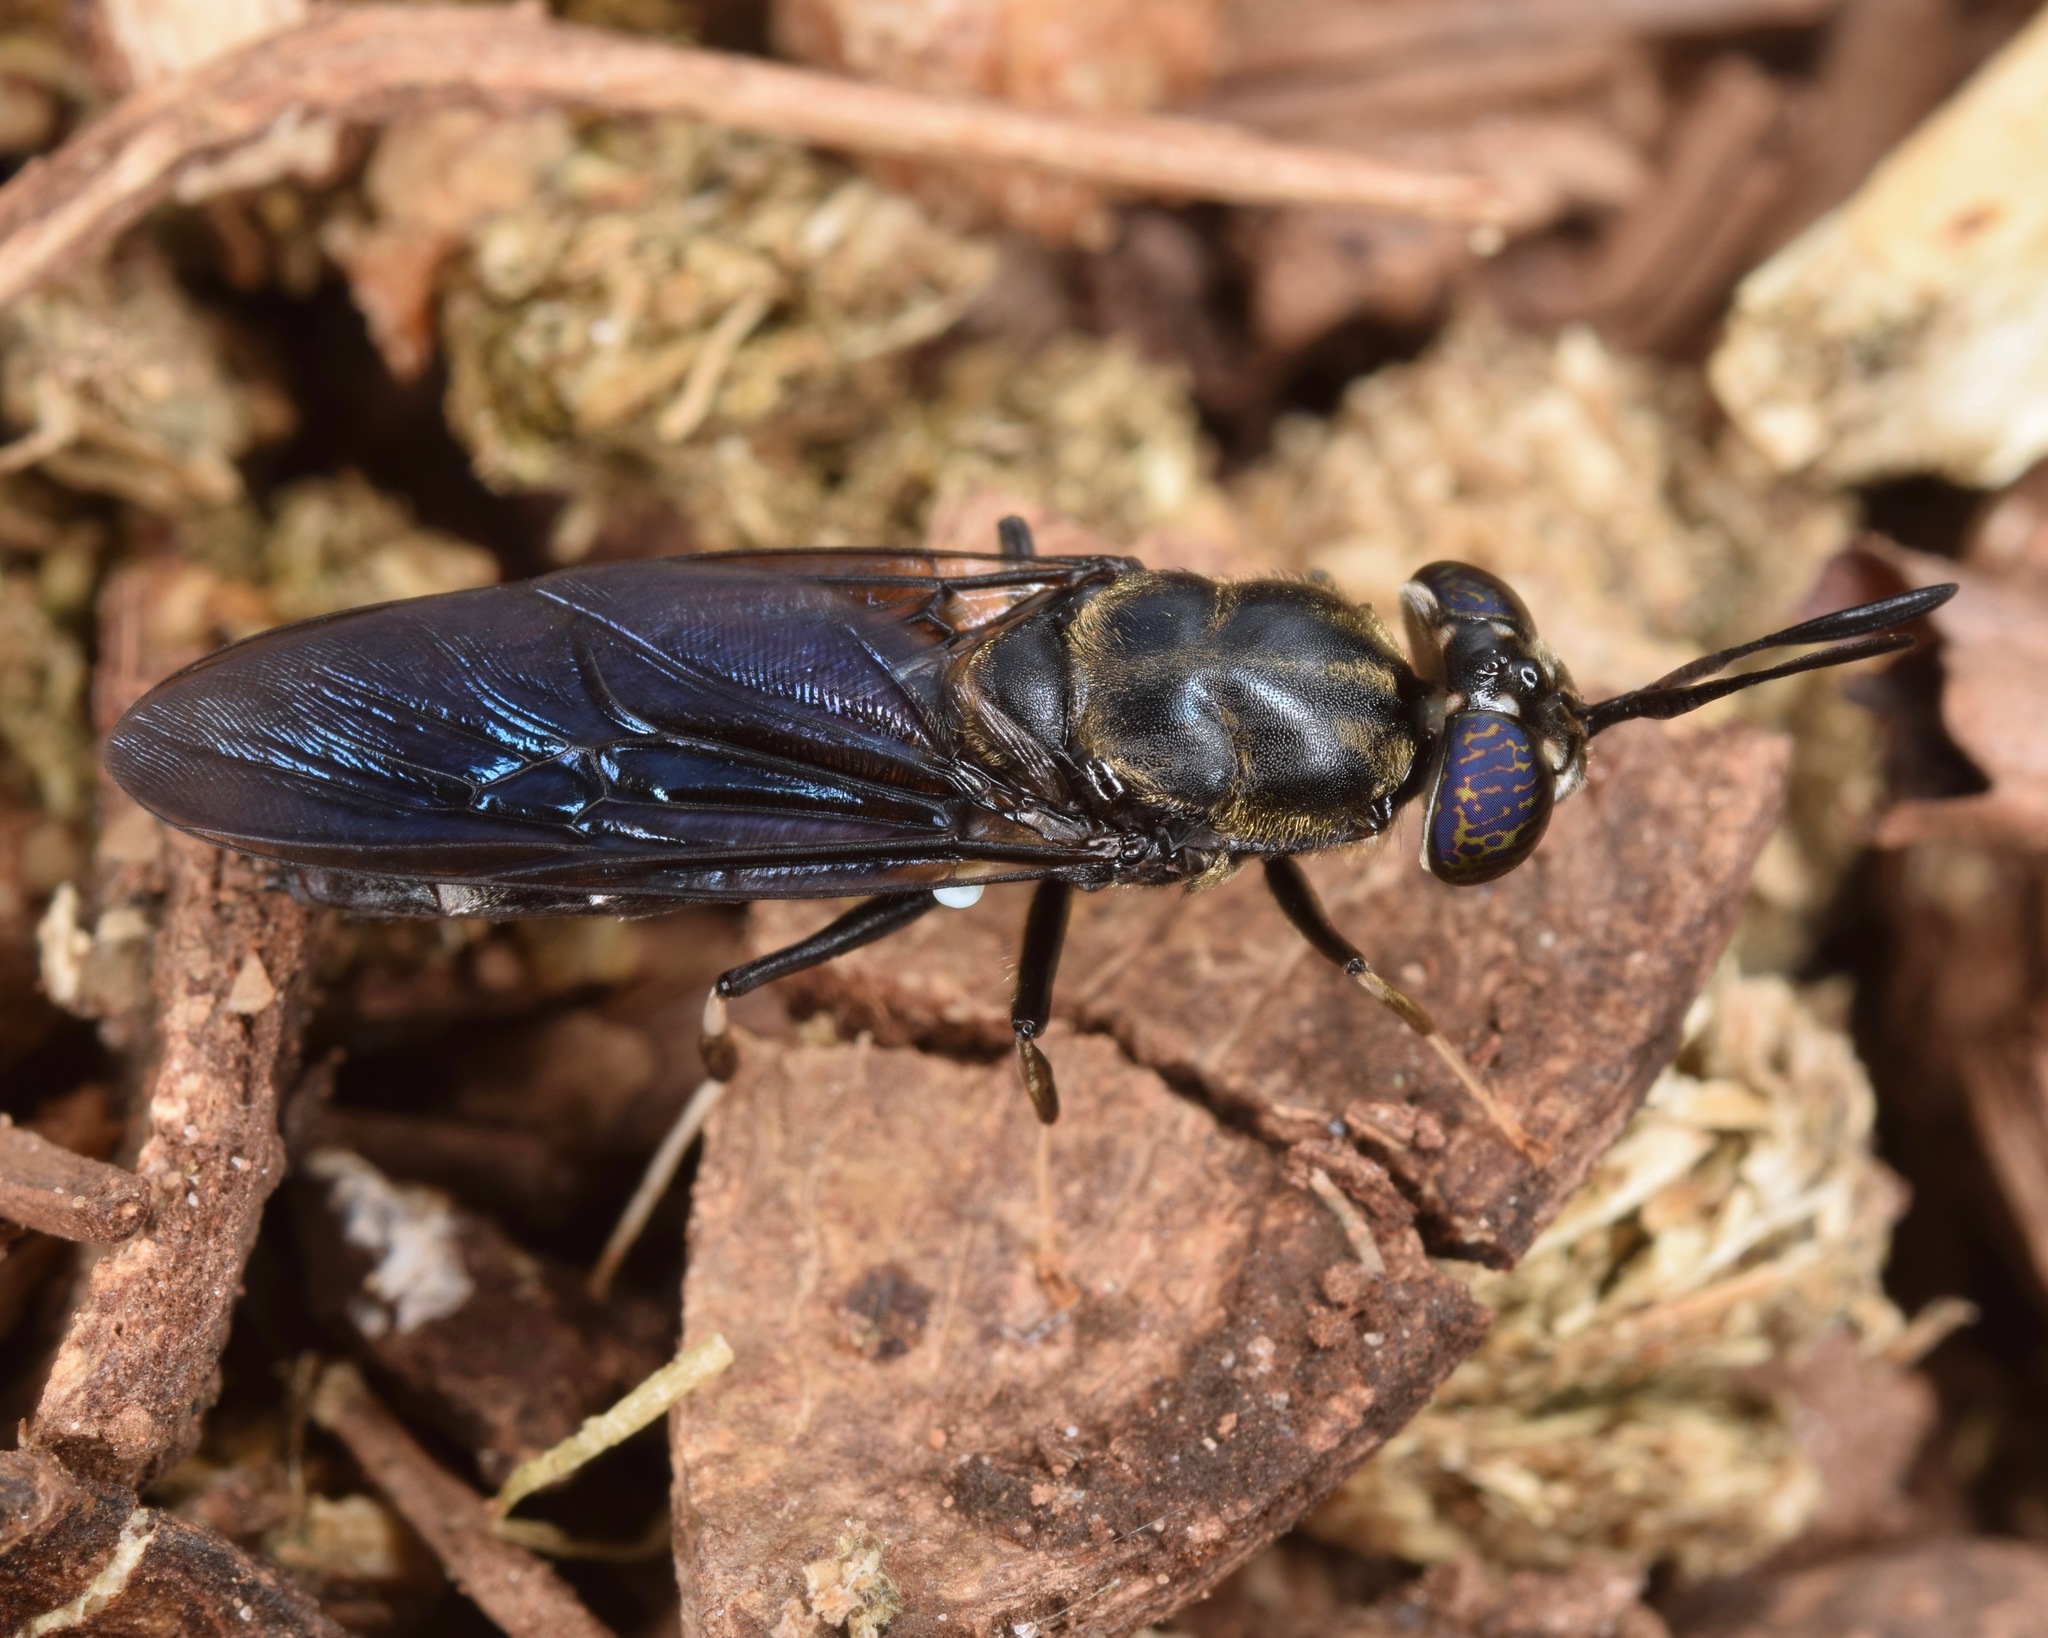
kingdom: Animalia
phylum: Arthropoda
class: Insecta
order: Diptera
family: Stratiomyidae
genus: Hermetia
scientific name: Hermetia illucens
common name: Black soldier fly
